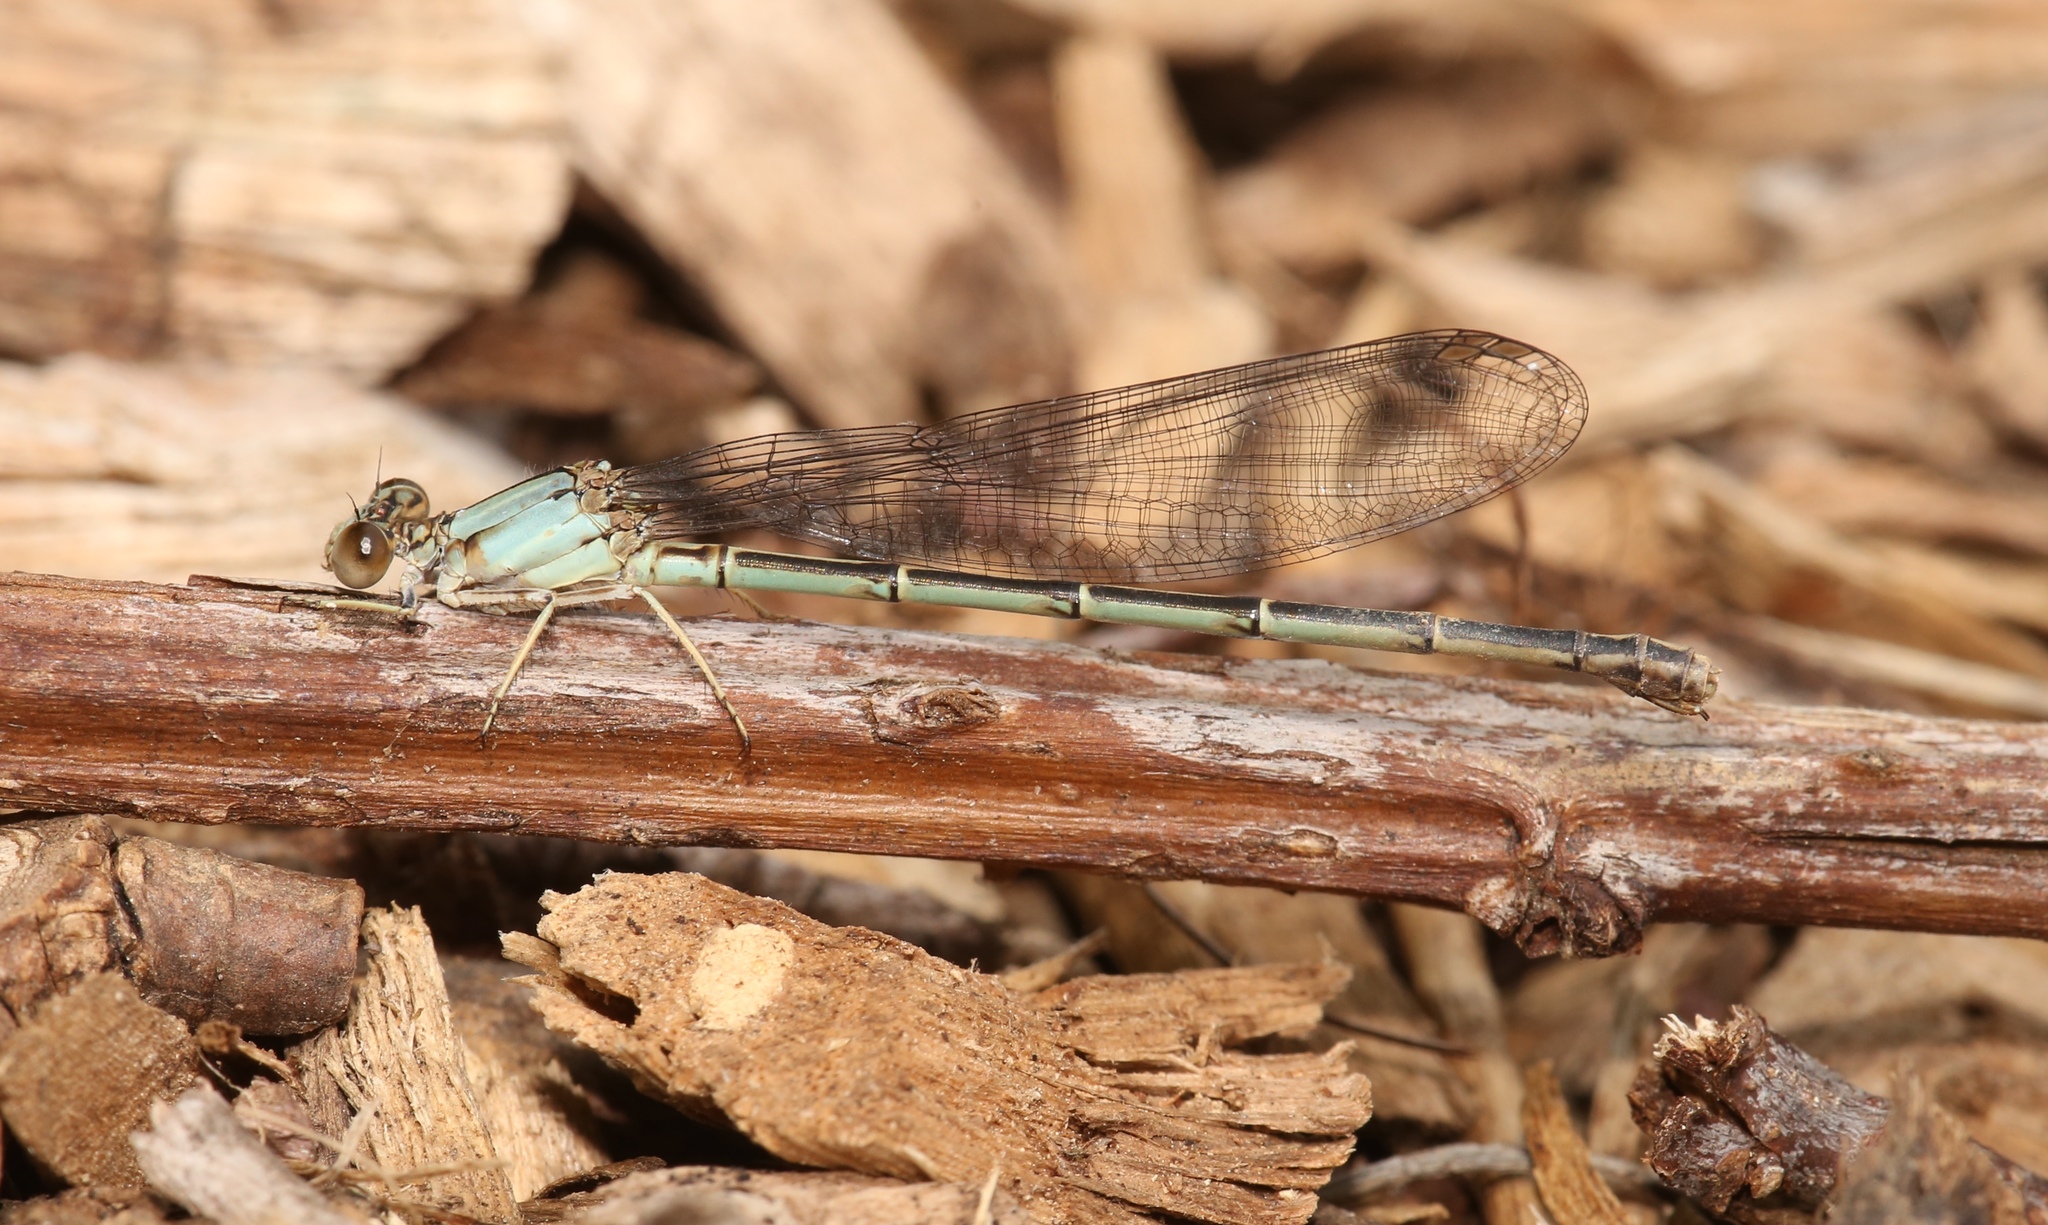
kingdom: Animalia
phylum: Arthropoda
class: Insecta
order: Odonata
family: Coenagrionidae
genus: Argia
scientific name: Argia apicalis
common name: Blue-fronted dancer
